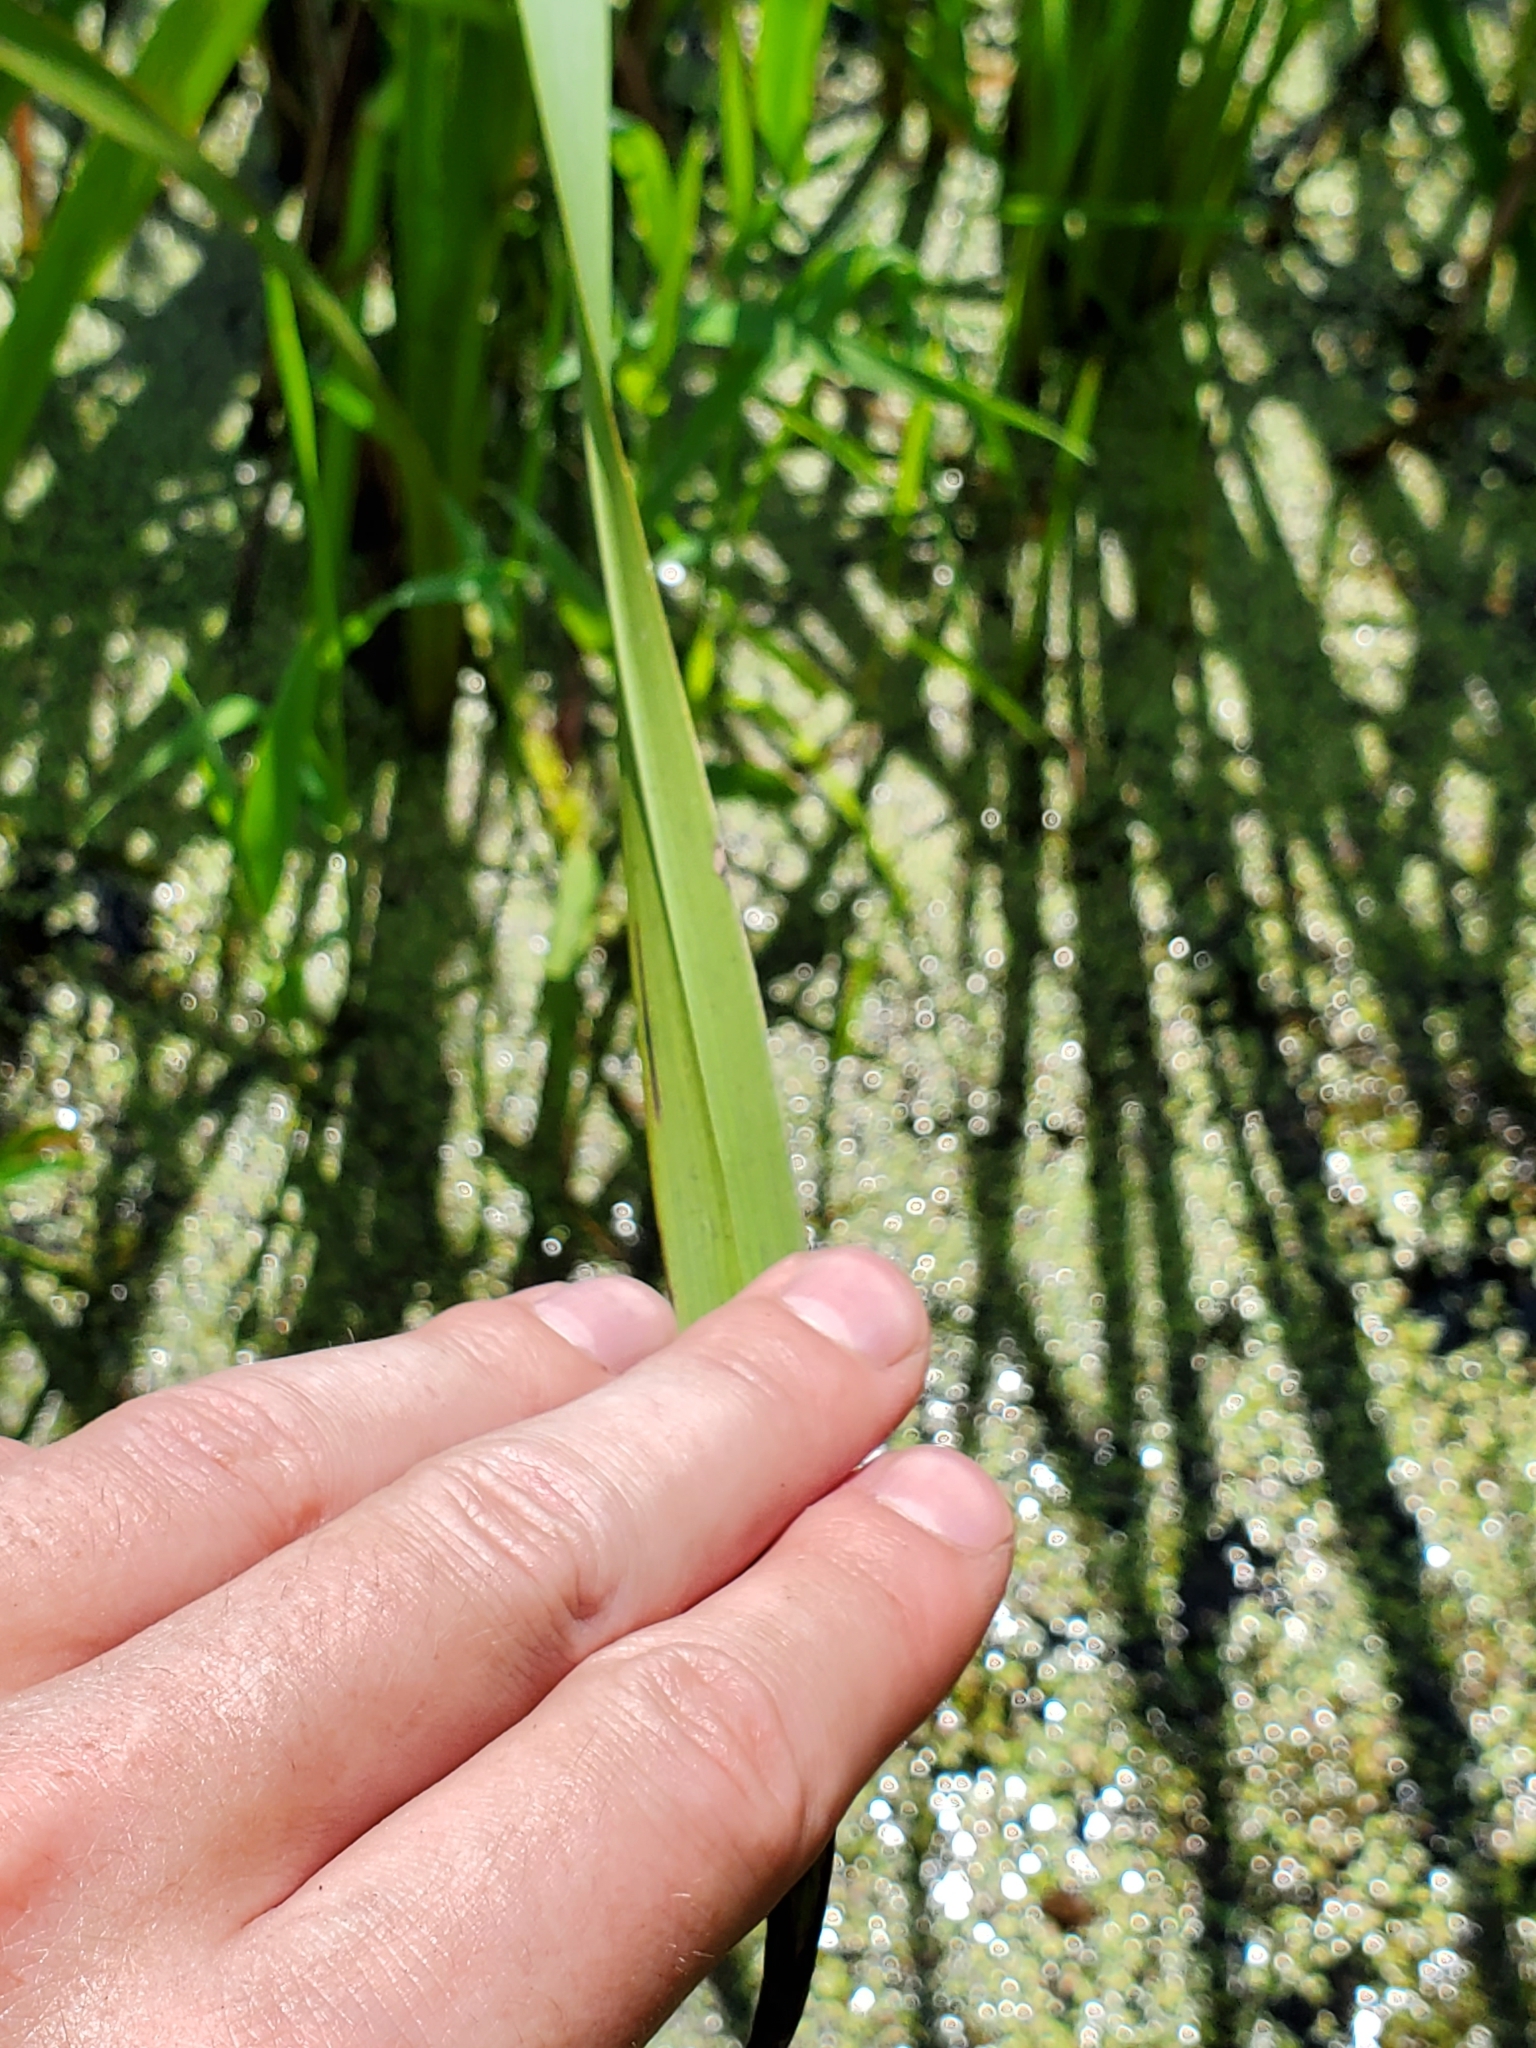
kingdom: Plantae
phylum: Tracheophyta
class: Liliopsida
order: Poales
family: Typhaceae
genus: Sparganium
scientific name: Sparganium eurycarpum
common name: Broad-fruited burreed
